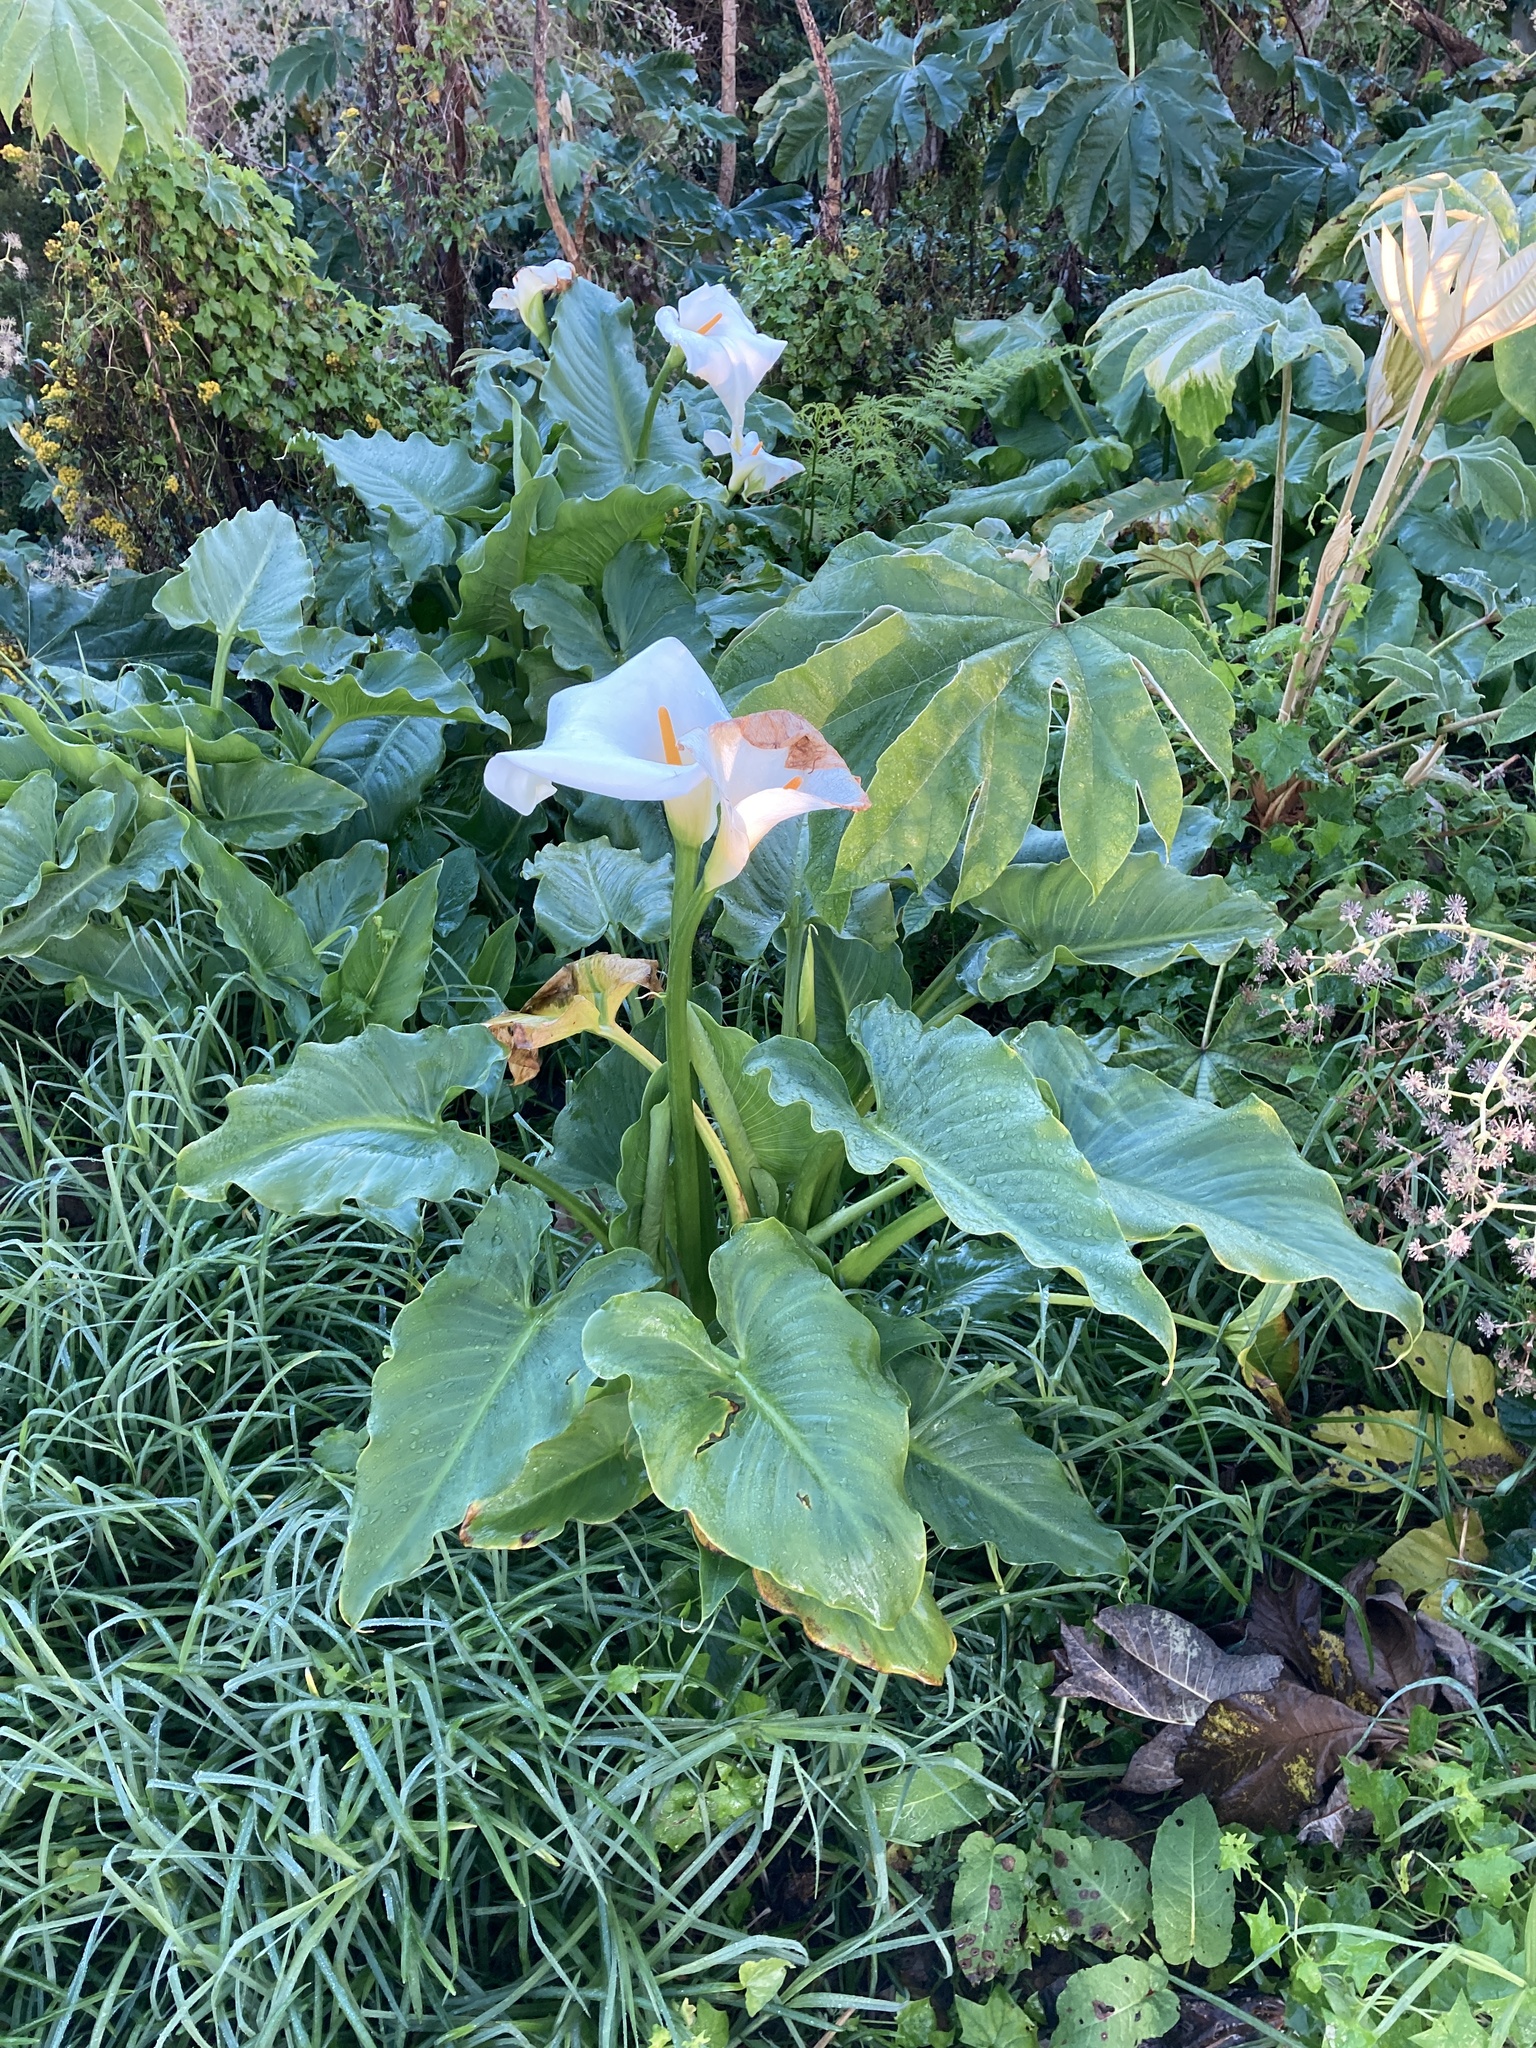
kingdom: Plantae
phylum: Tracheophyta
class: Liliopsida
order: Alismatales
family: Araceae
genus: Zantedeschia
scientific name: Zantedeschia aethiopica
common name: Altar-lily
